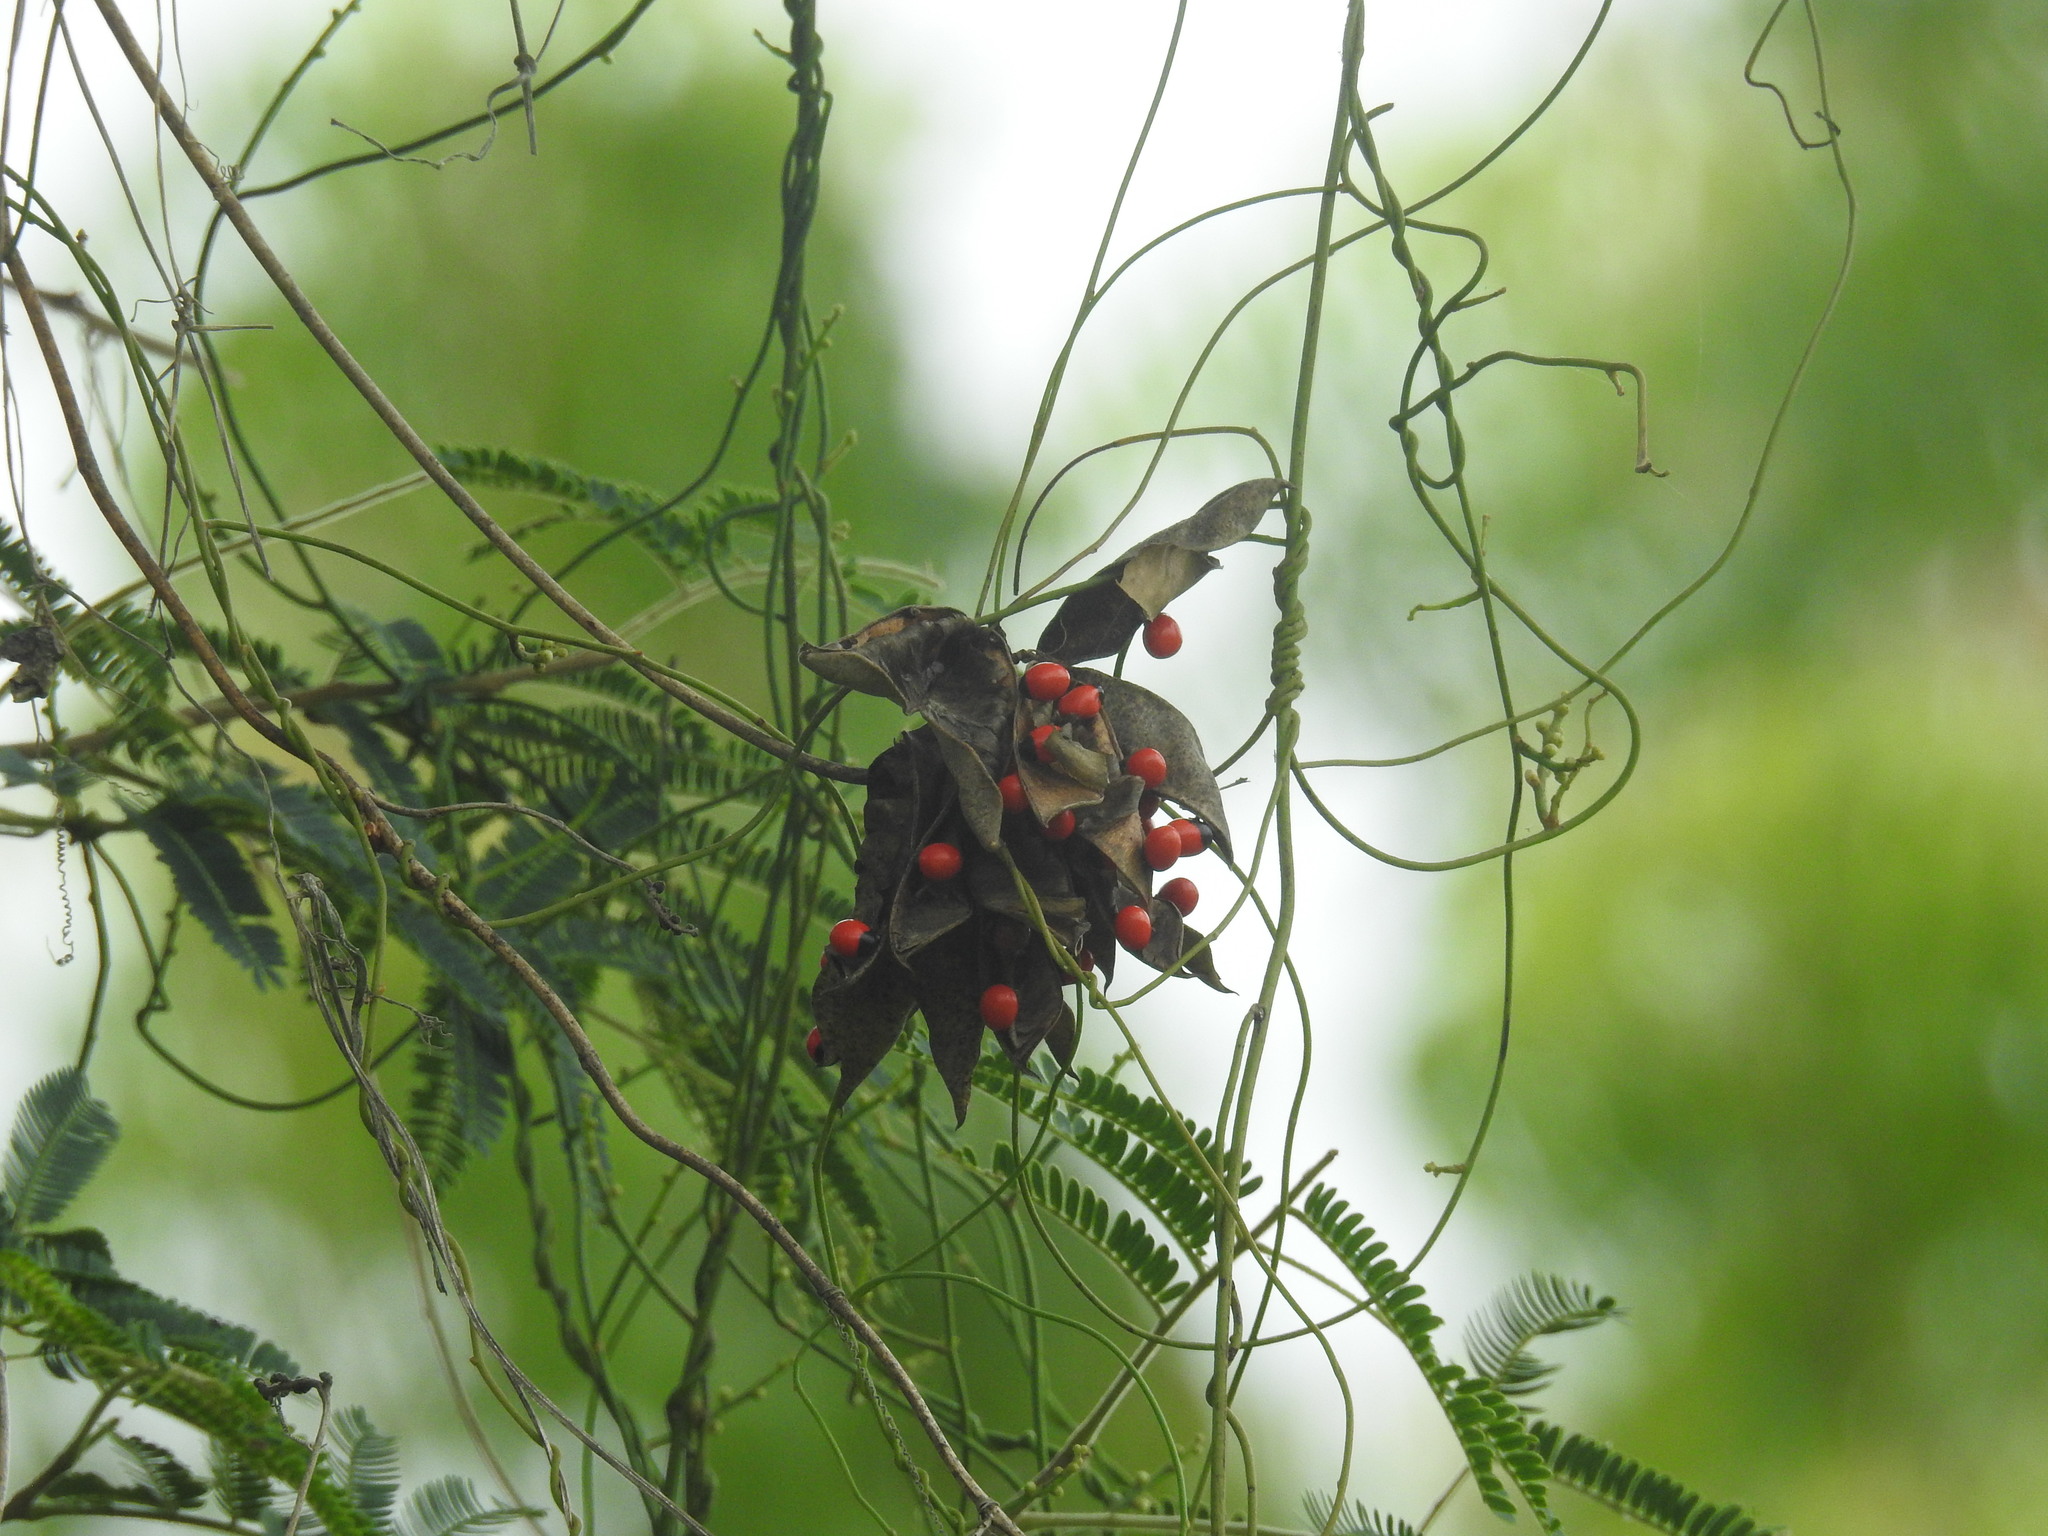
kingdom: Plantae
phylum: Tracheophyta
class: Magnoliopsida
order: Fabales
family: Fabaceae
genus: Abrus
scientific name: Abrus precatorius
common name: Rosarypea
